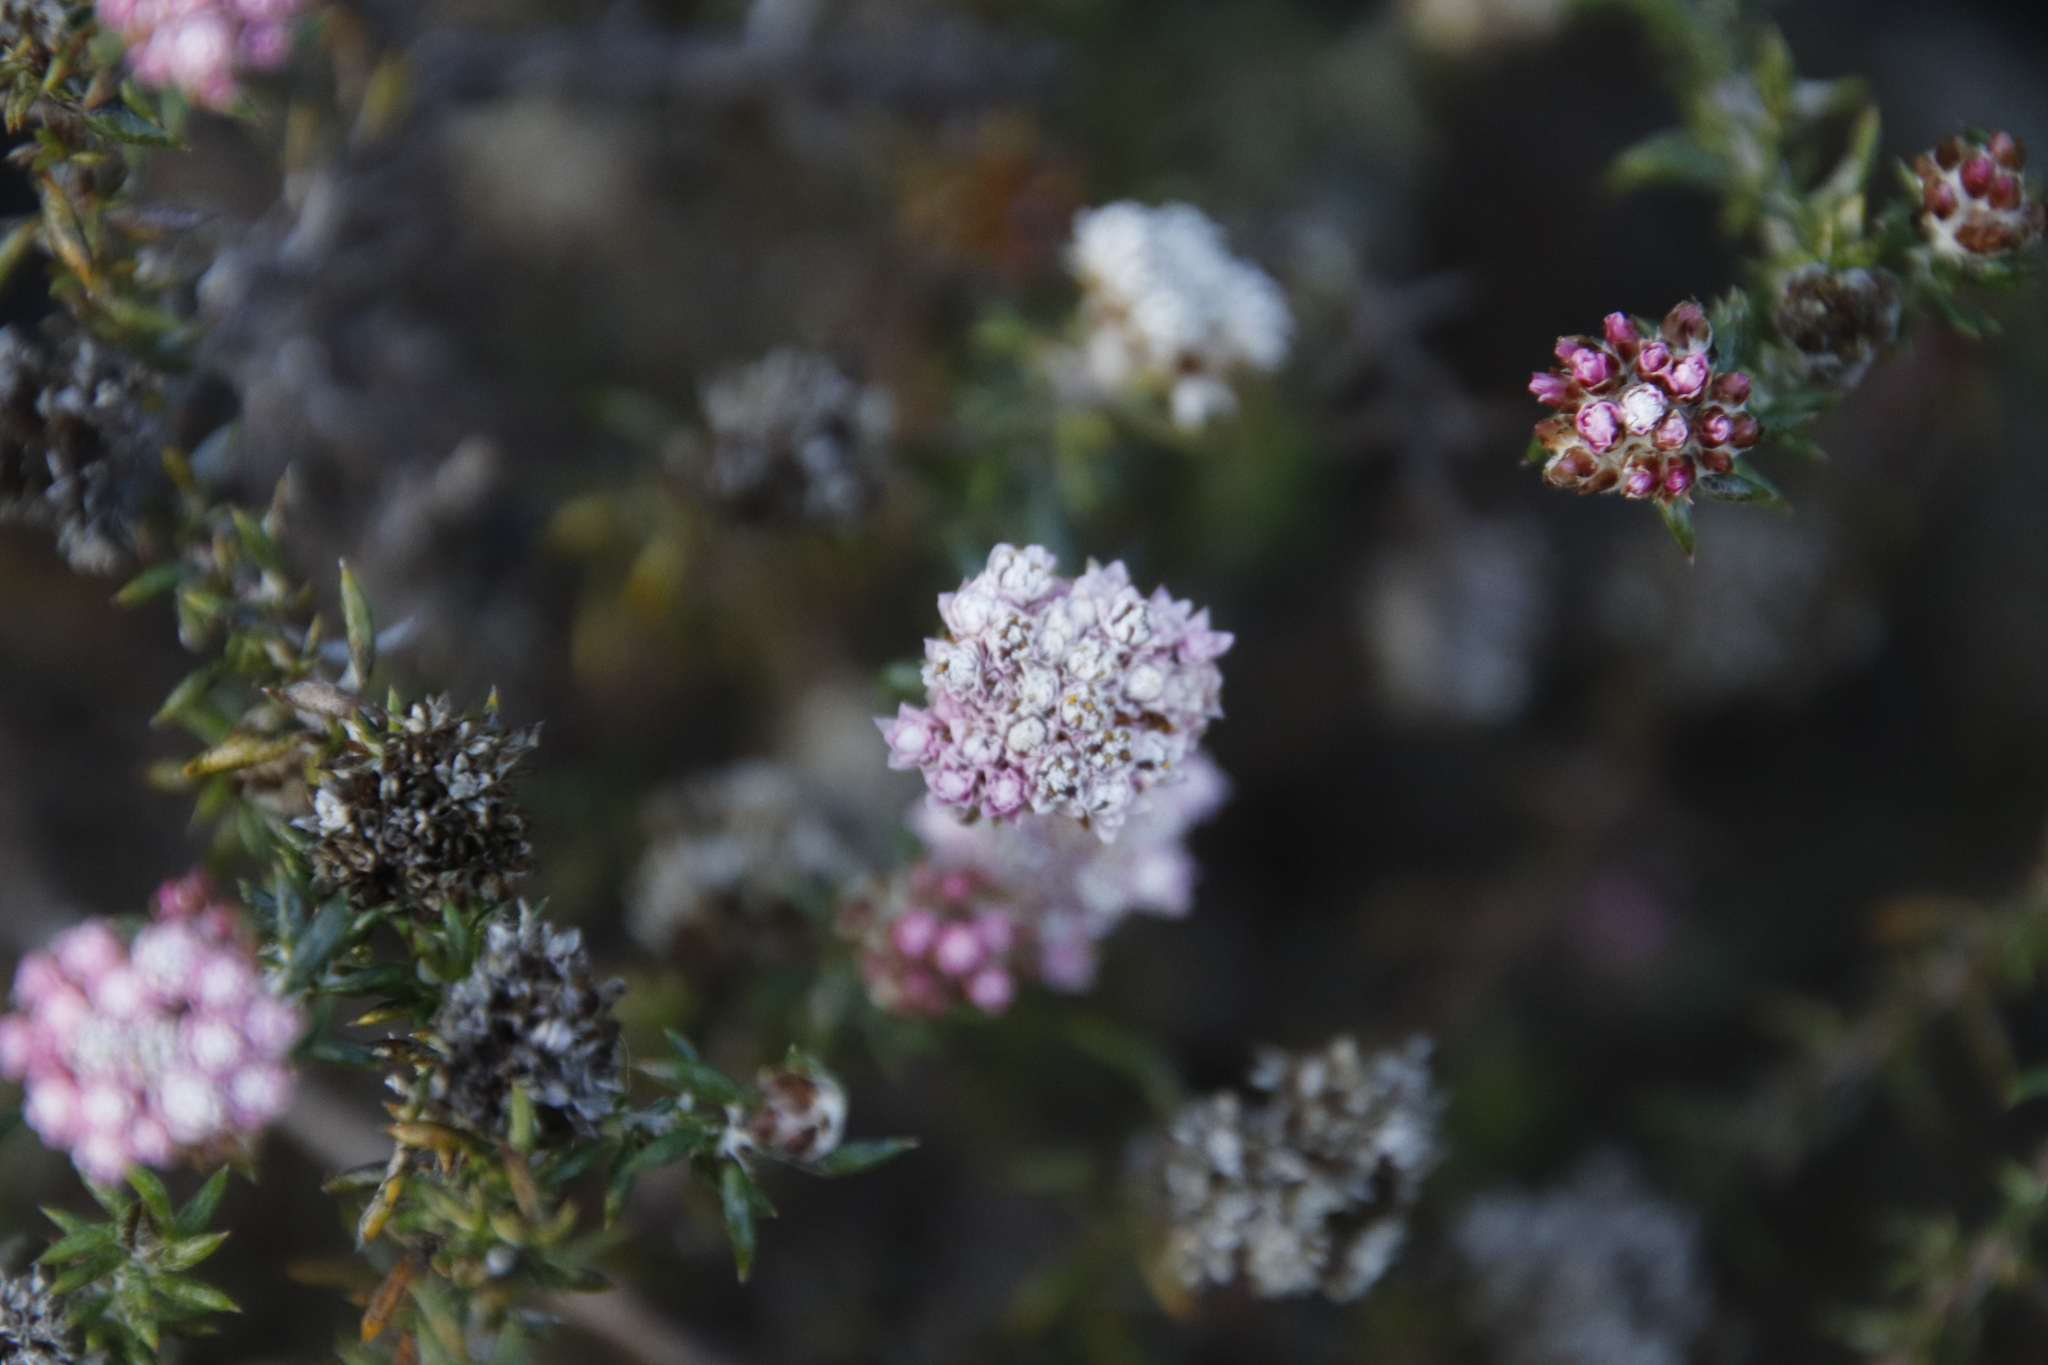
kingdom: Plantae
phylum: Tracheophyta
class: Magnoliopsida
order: Asterales
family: Asteraceae
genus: Metalasia
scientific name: Metalasia divergens
